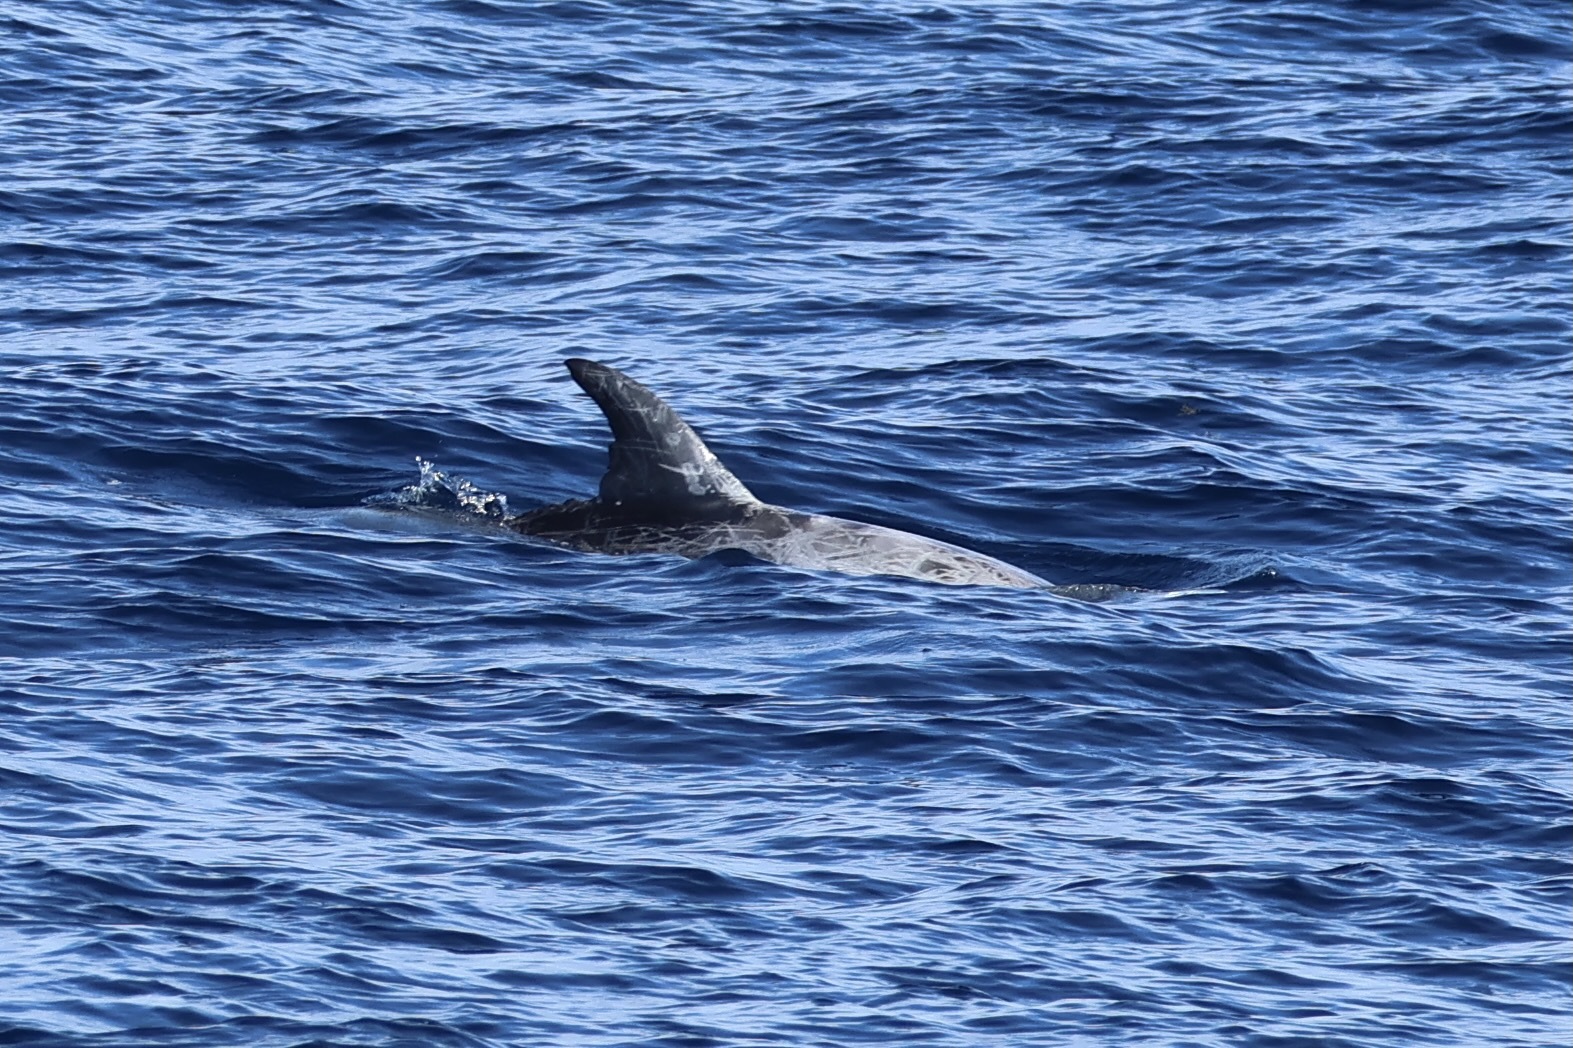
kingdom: Animalia
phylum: Chordata
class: Mammalia
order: Cetacea
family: Delphinidae
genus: Grampus
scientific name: Grampus griseus
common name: Risso's dolphin
